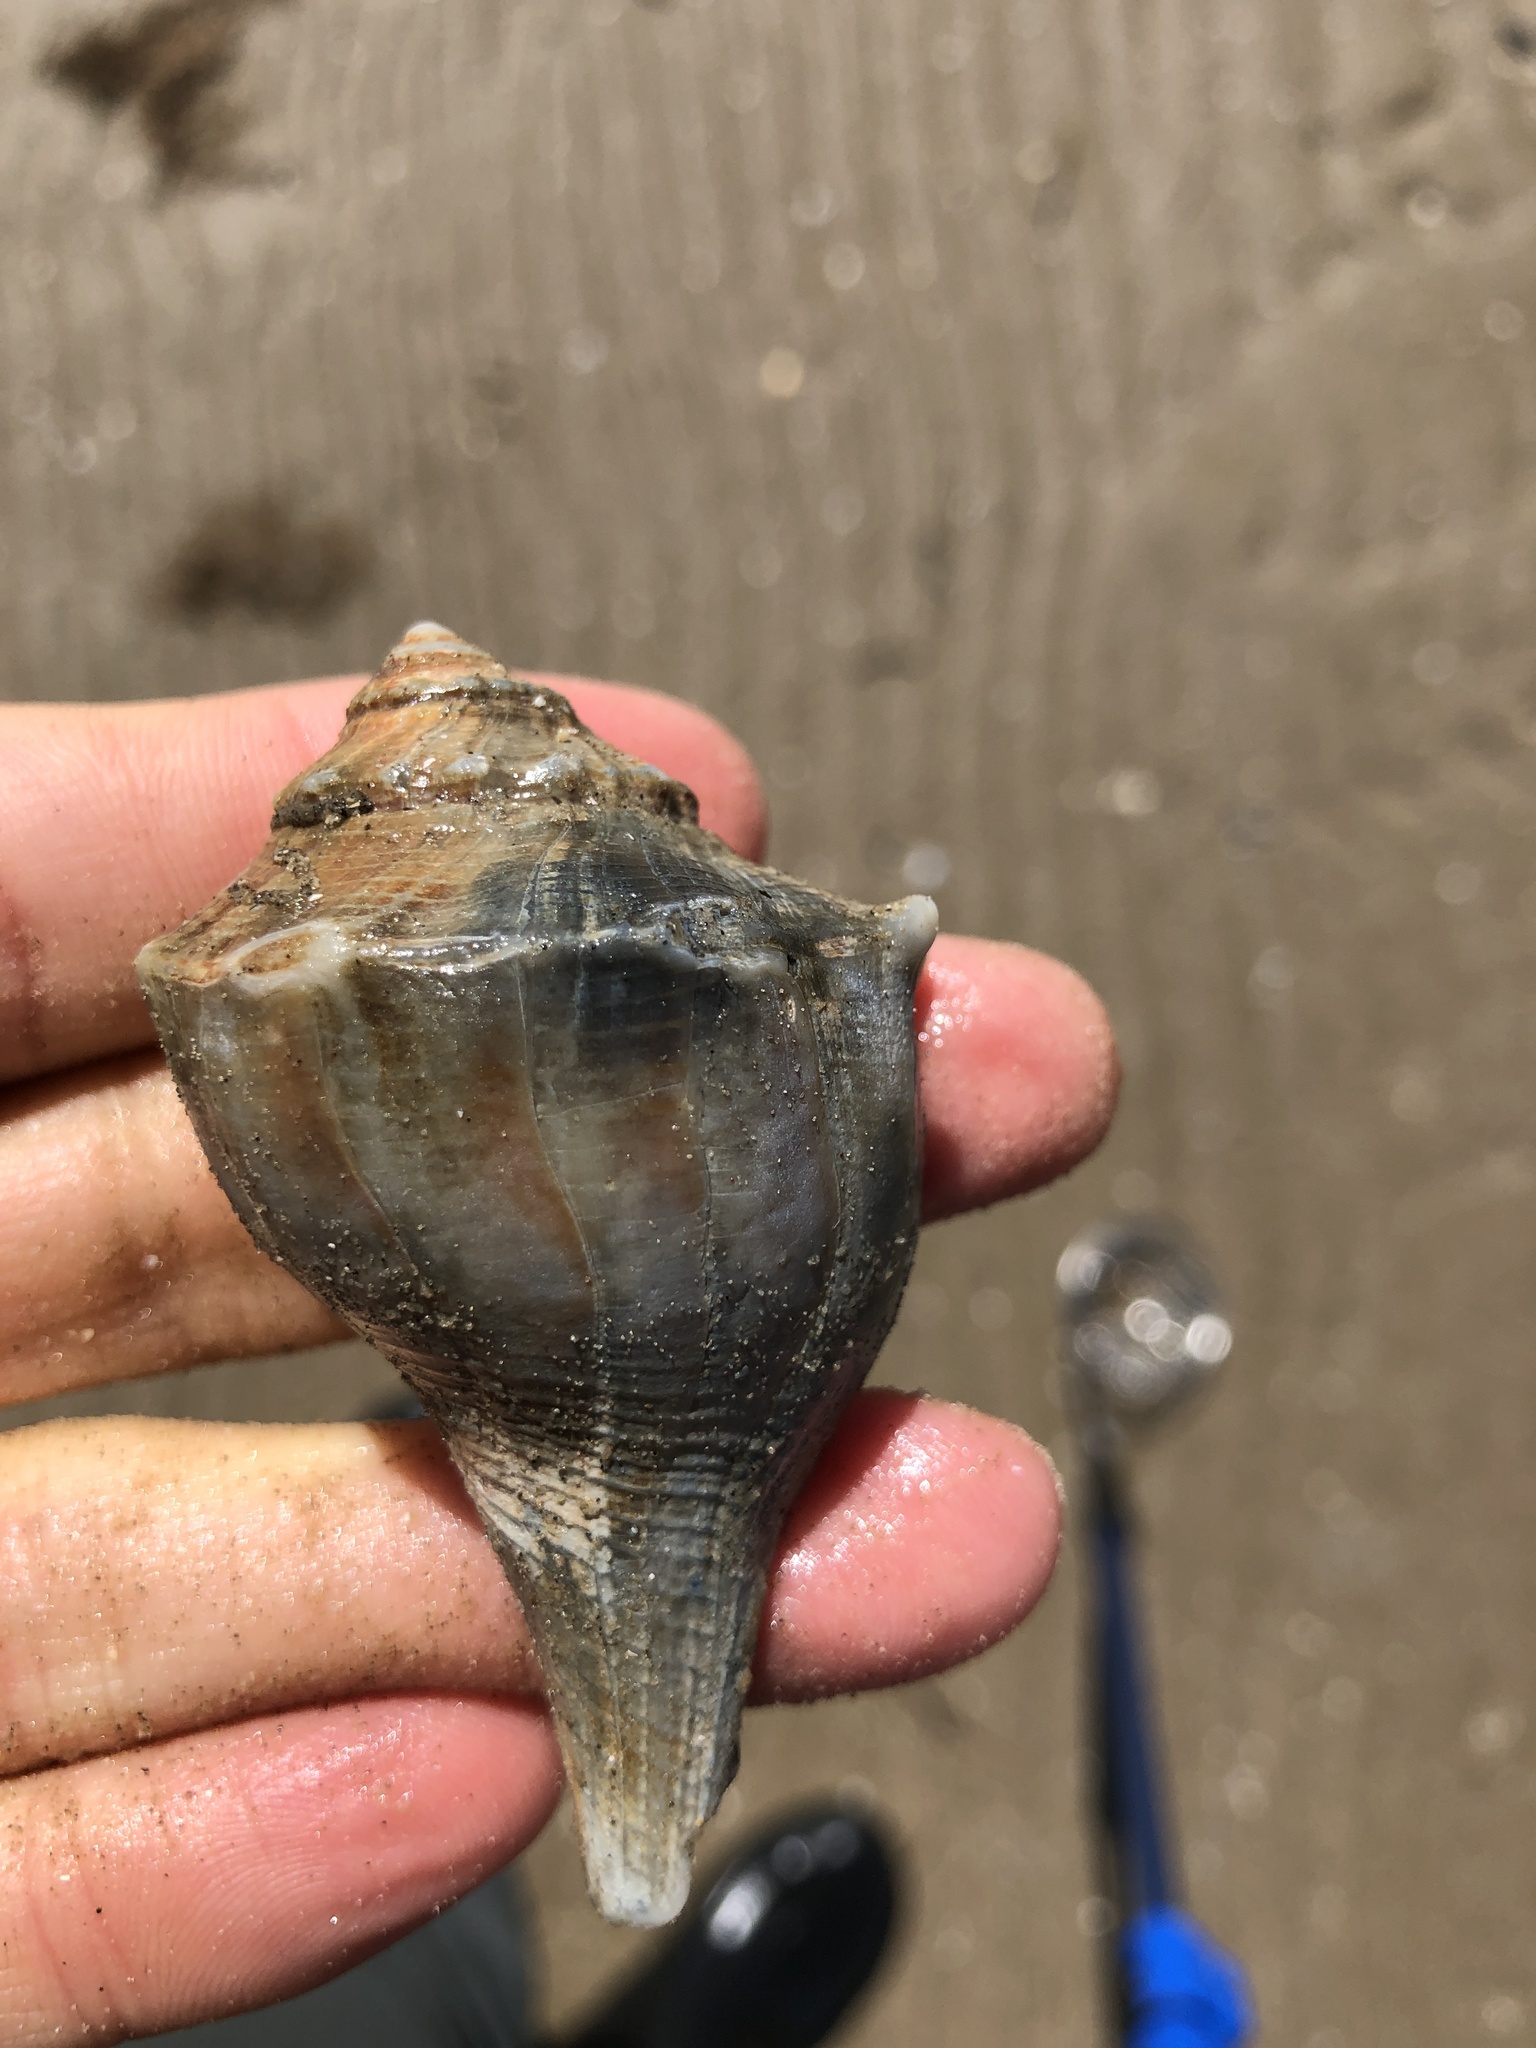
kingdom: Animalia
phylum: Mollusca
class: Gastropoda
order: Neogastropoda
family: Busyconidae
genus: Sinistrofulgur
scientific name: Sinistrofulgur pulleyi
